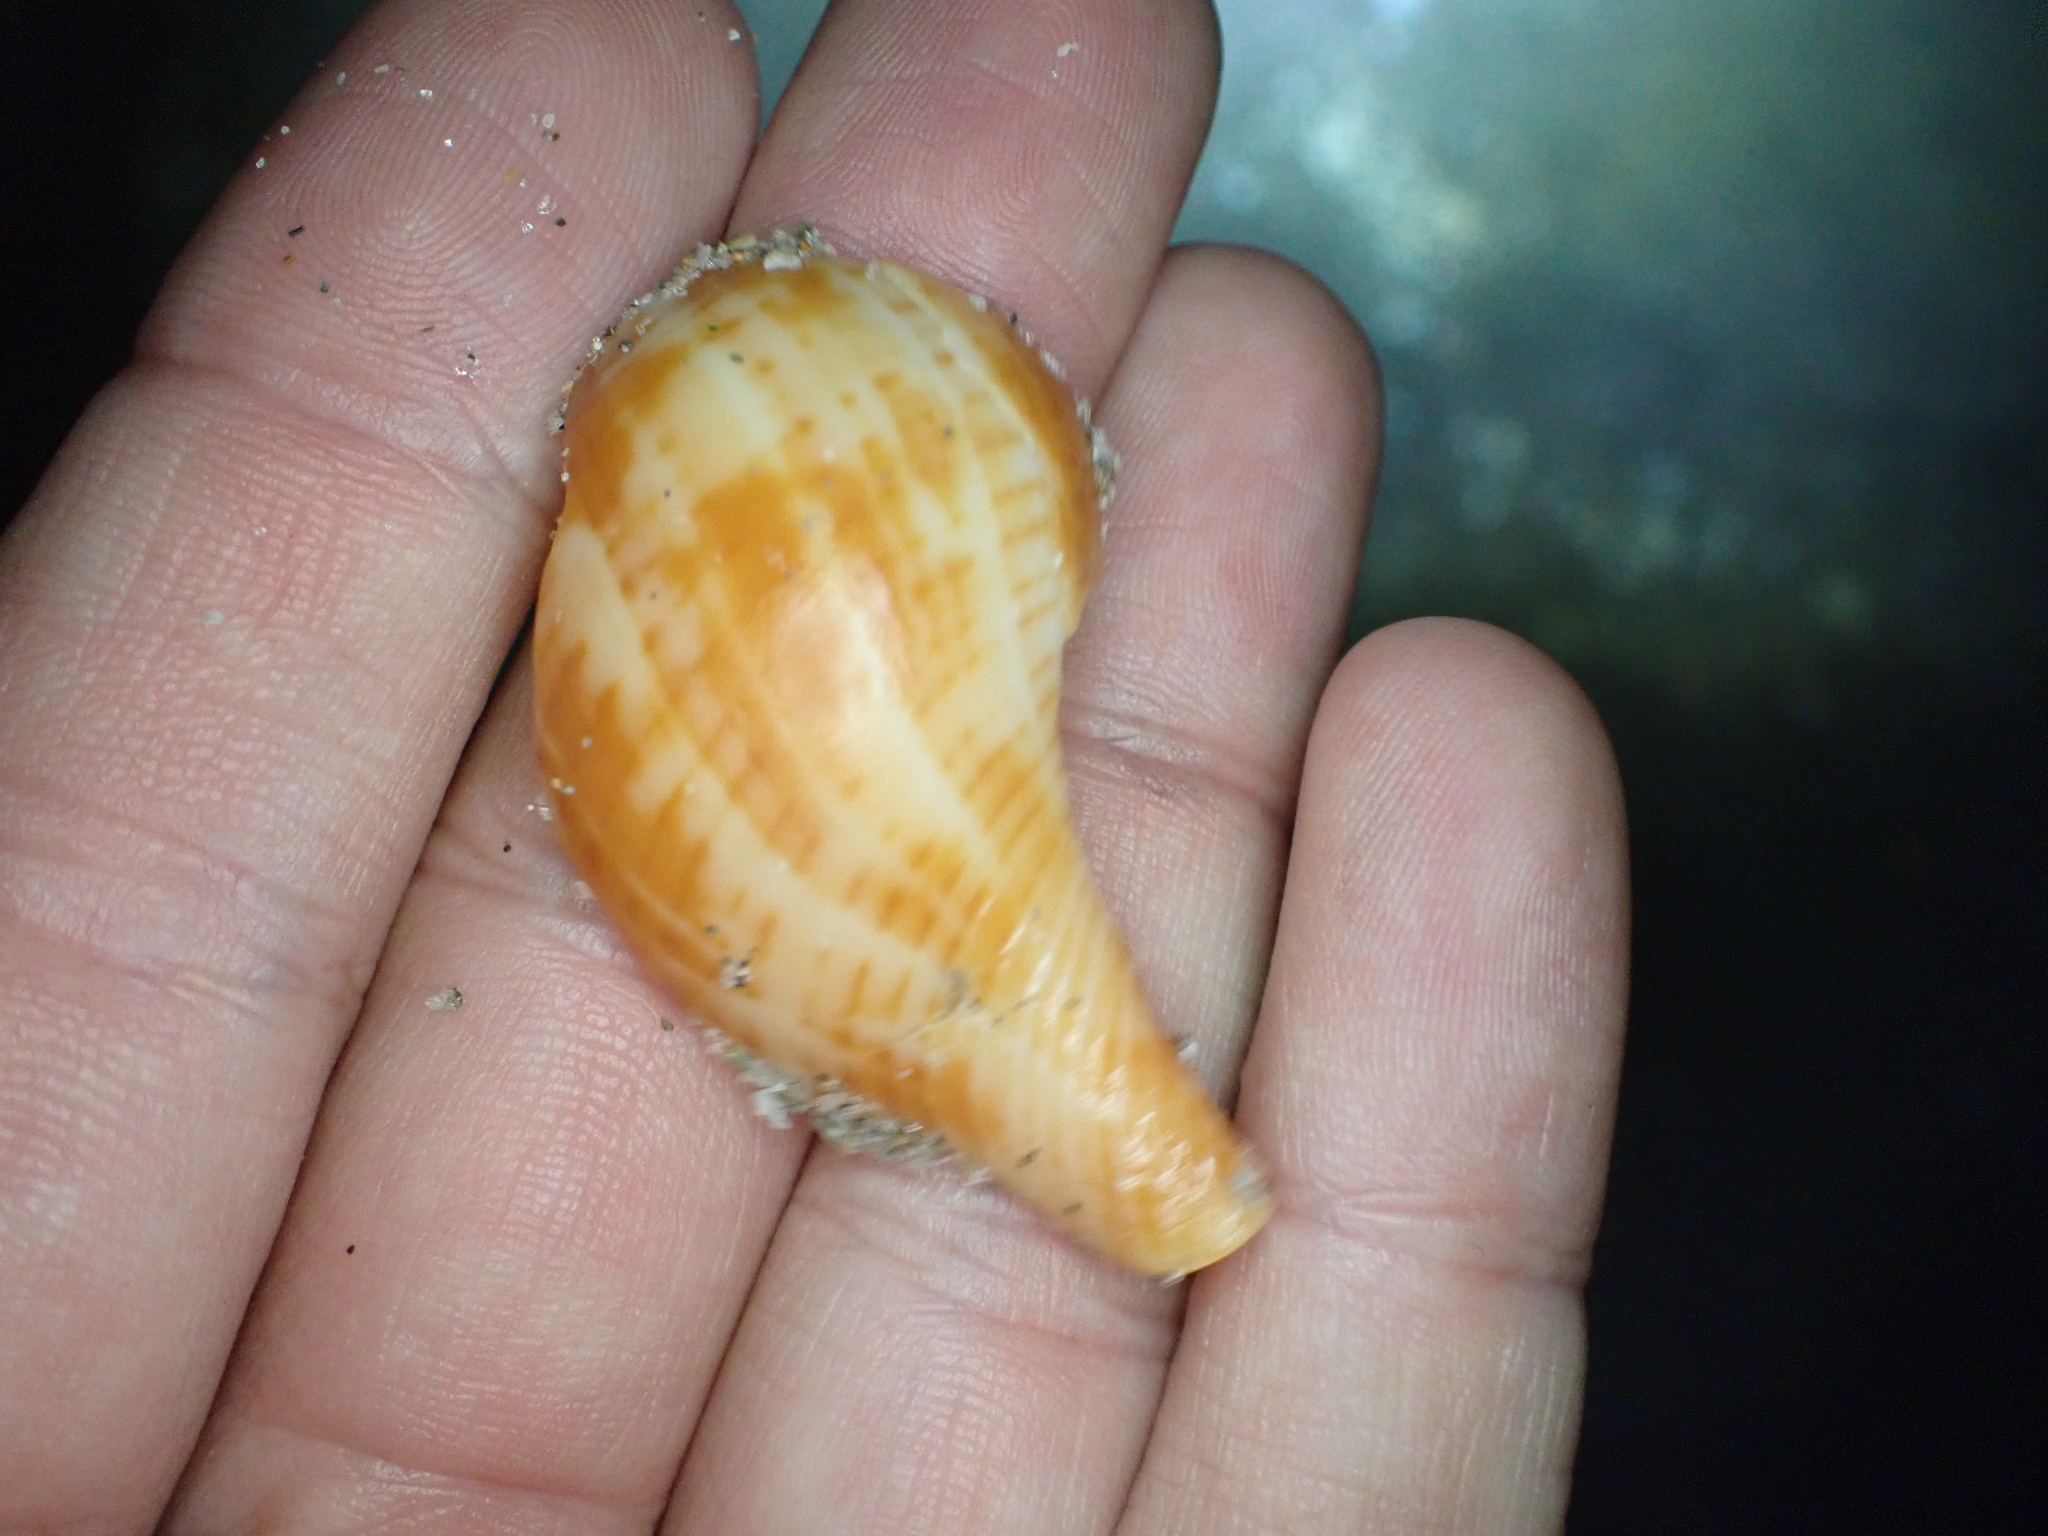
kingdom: Animalia
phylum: Mollusca
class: Gastropoda
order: Neogastropoda
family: Fasciolariidae
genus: Fasciolaria
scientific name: Fasciolaria tulipa
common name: True tulip
